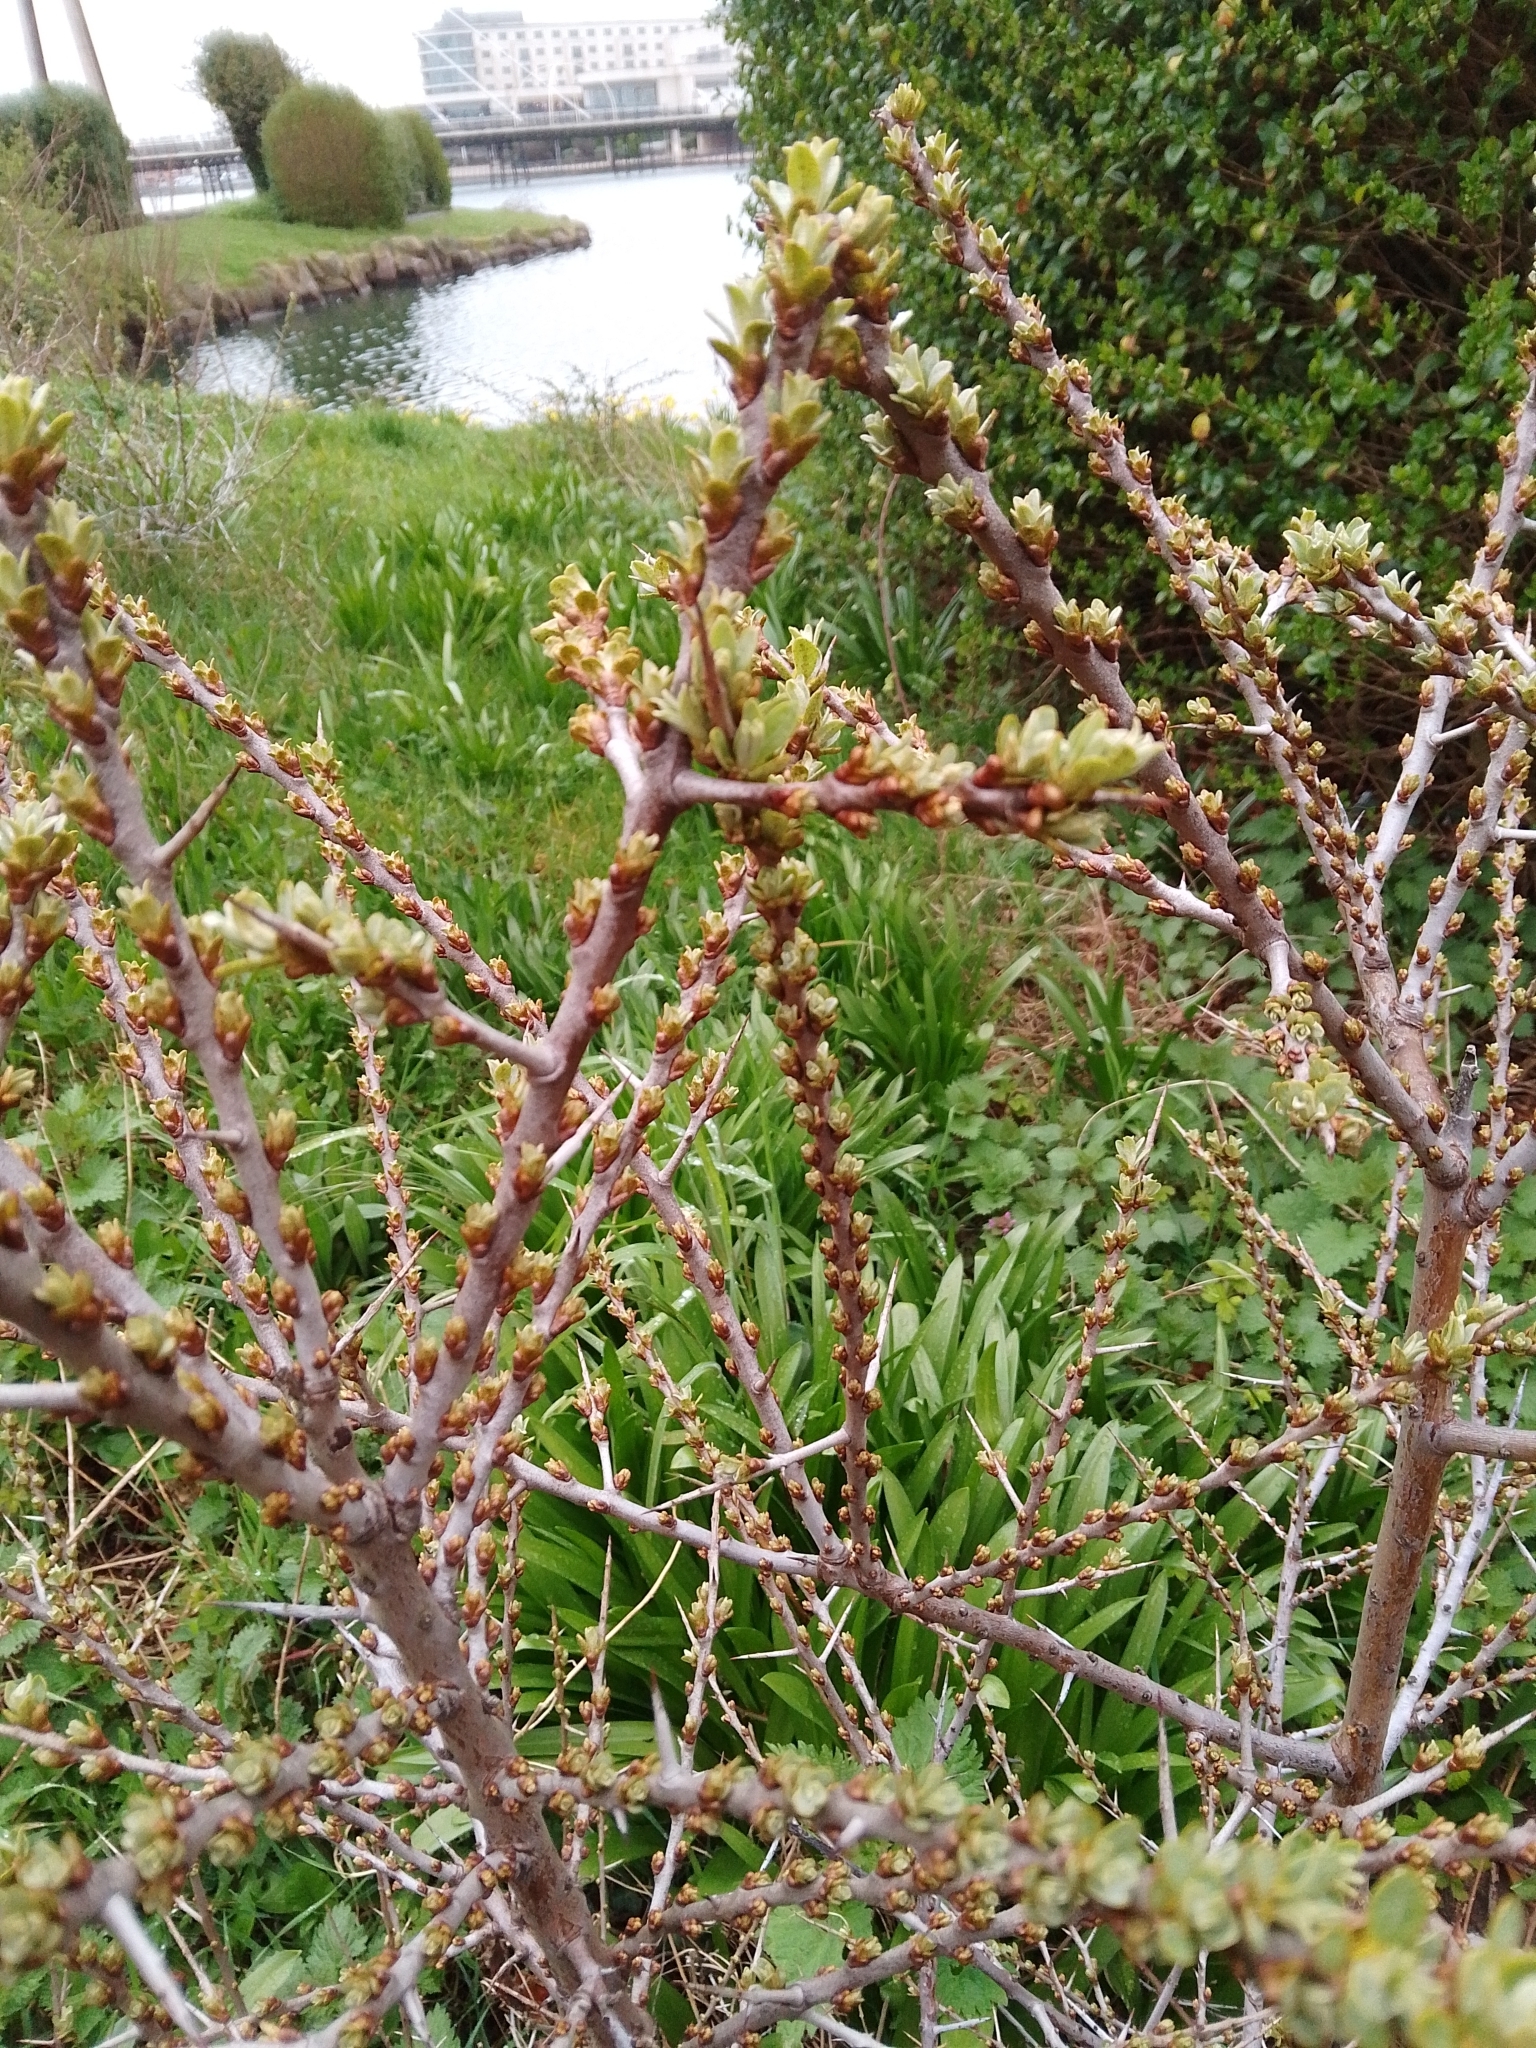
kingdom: Plantae
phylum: Tracheophyta
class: Magnoliopsida
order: Rosales
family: Elaeagnaceae
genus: Hippophae
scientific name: Hippophae rhamnoides
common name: Sea-buckthorn
